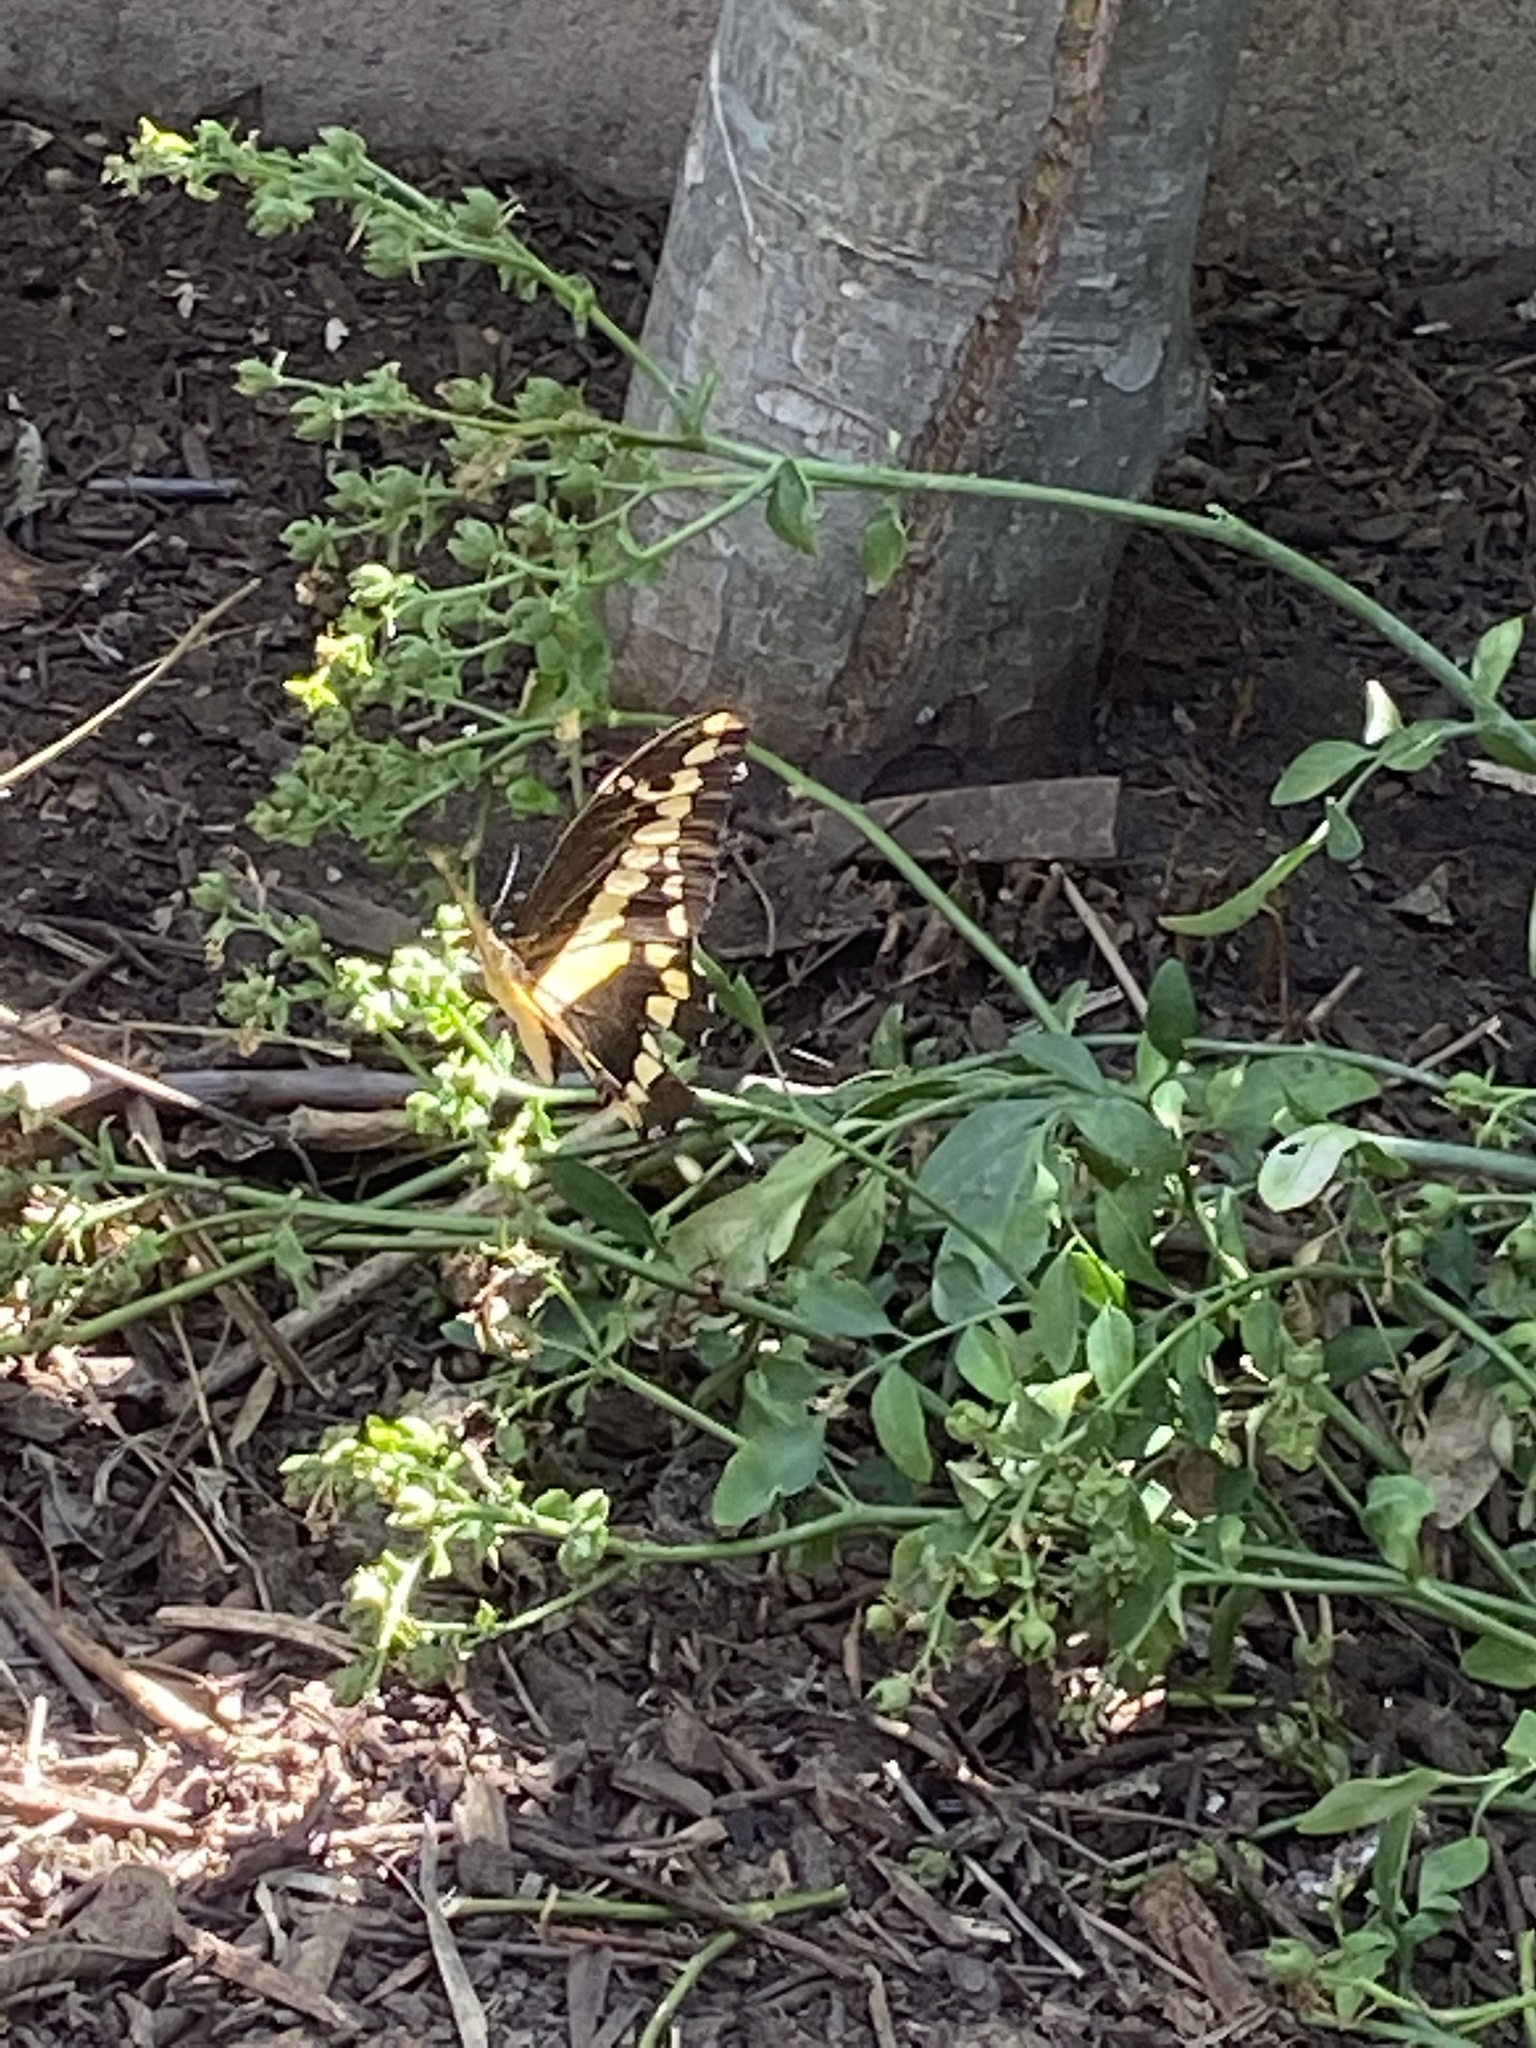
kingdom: Animalia
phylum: Arthropoda
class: Insecta
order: Lepidoptera
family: Papilionidae
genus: Papilio
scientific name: Papilio rumiko
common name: Western giant swallowtail
